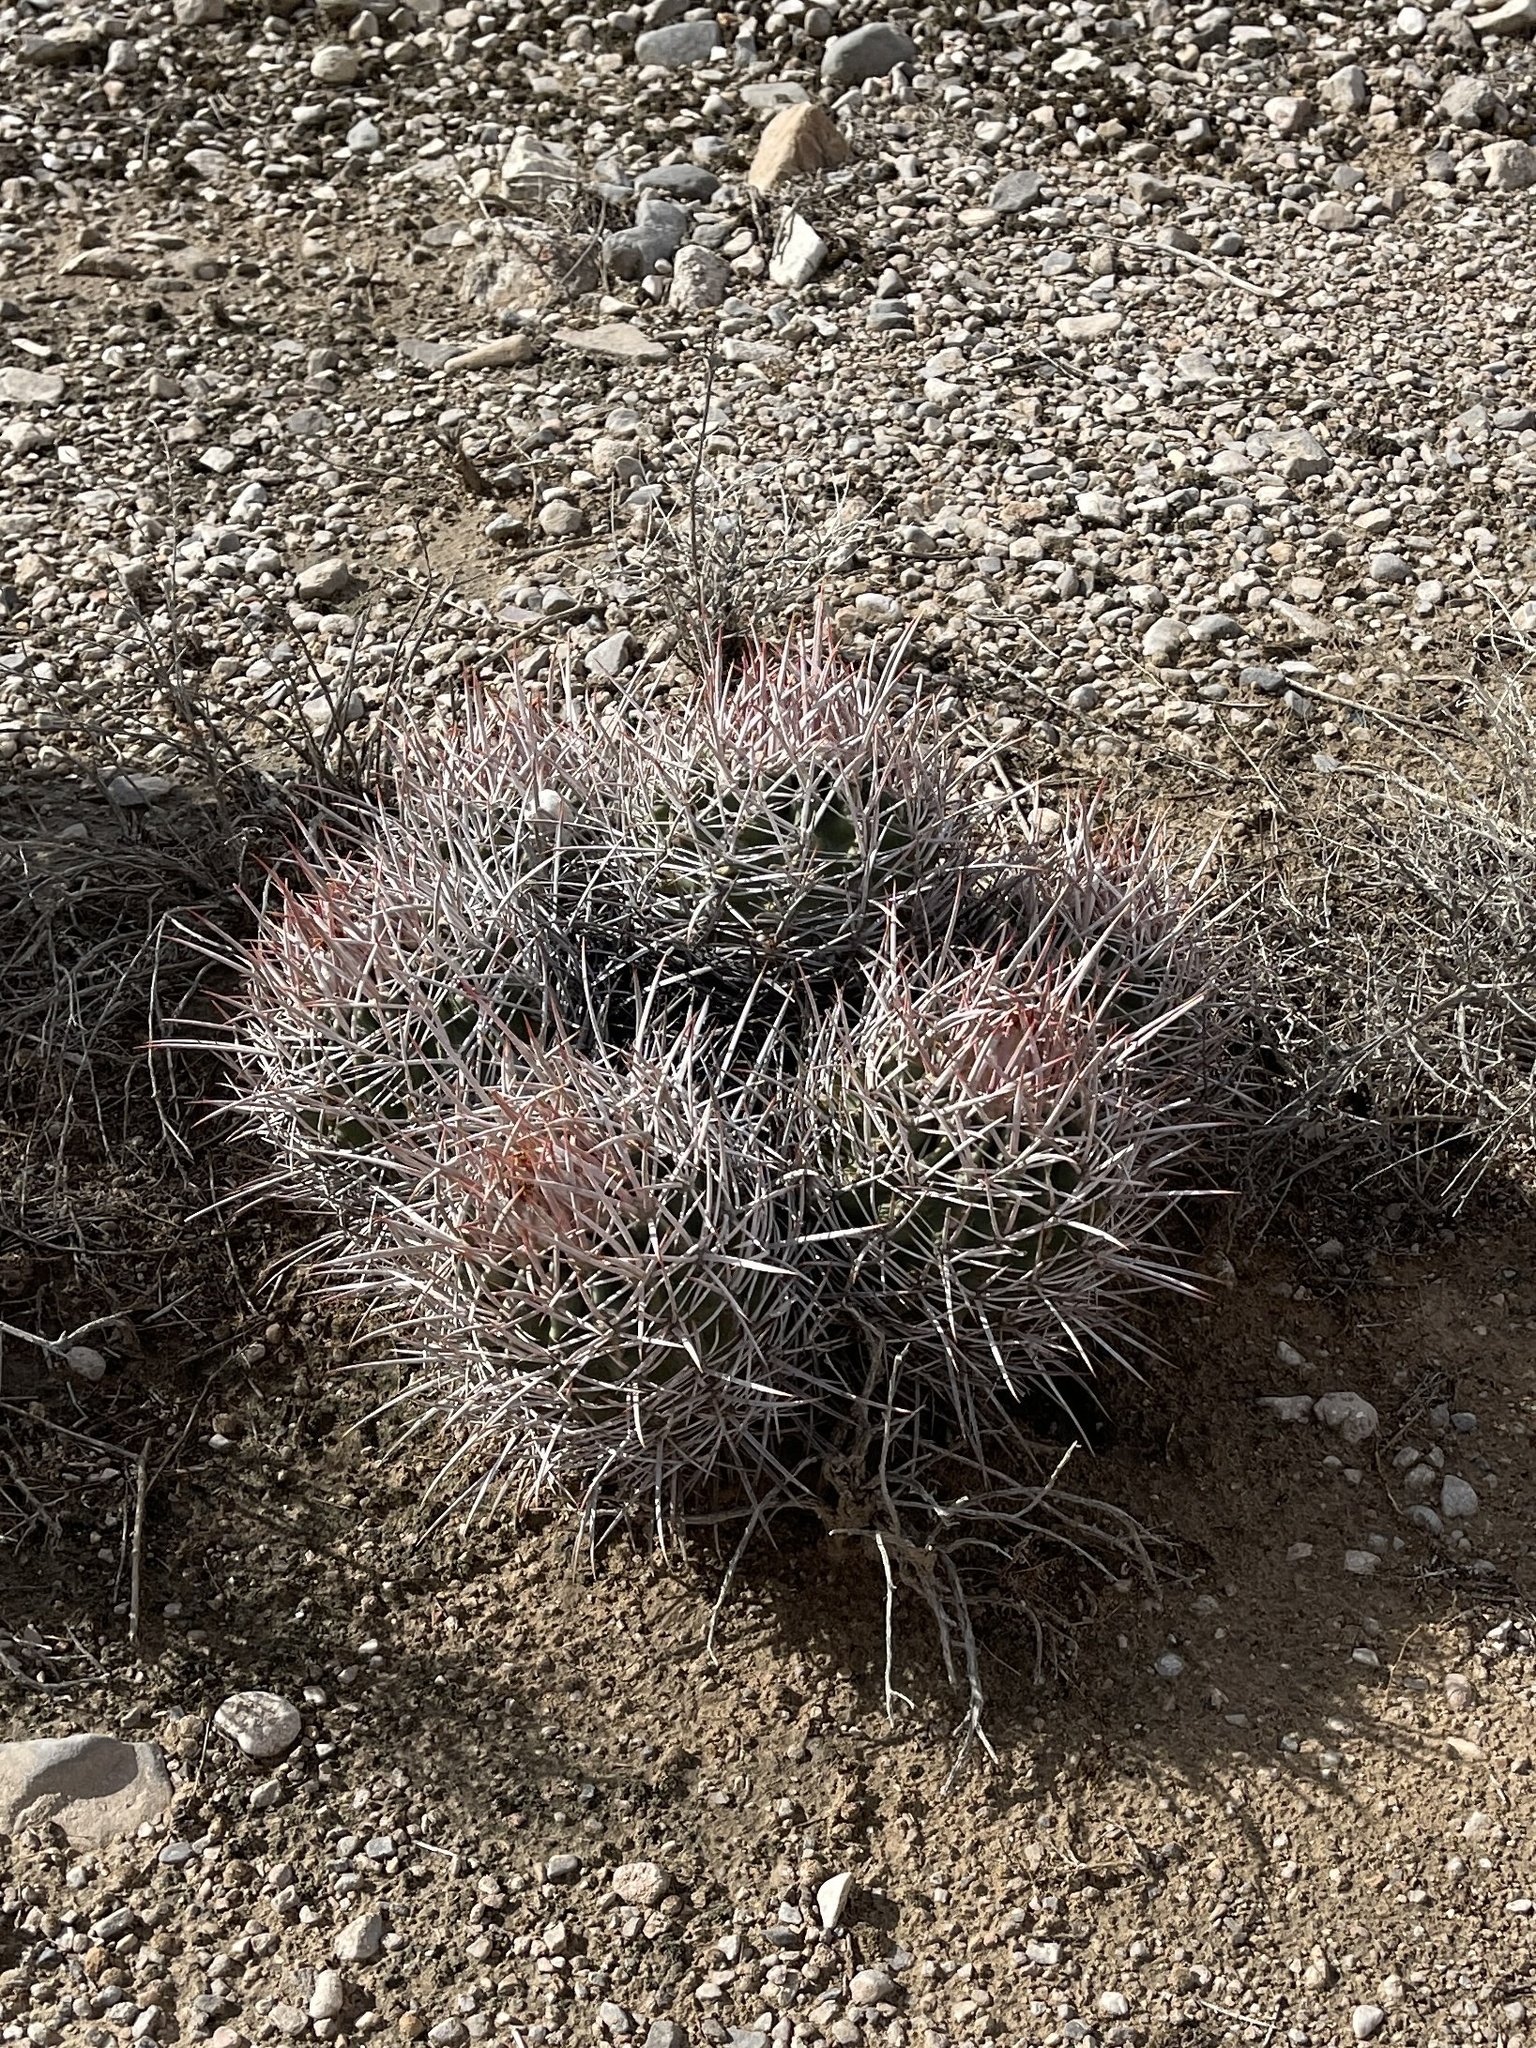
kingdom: Plantae
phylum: Tracheophyta
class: Magnoliopsida
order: Caryophyllales
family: Cactaceae
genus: Echinocactus
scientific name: Echinocactus polycephalus
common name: Cottontop cactus
